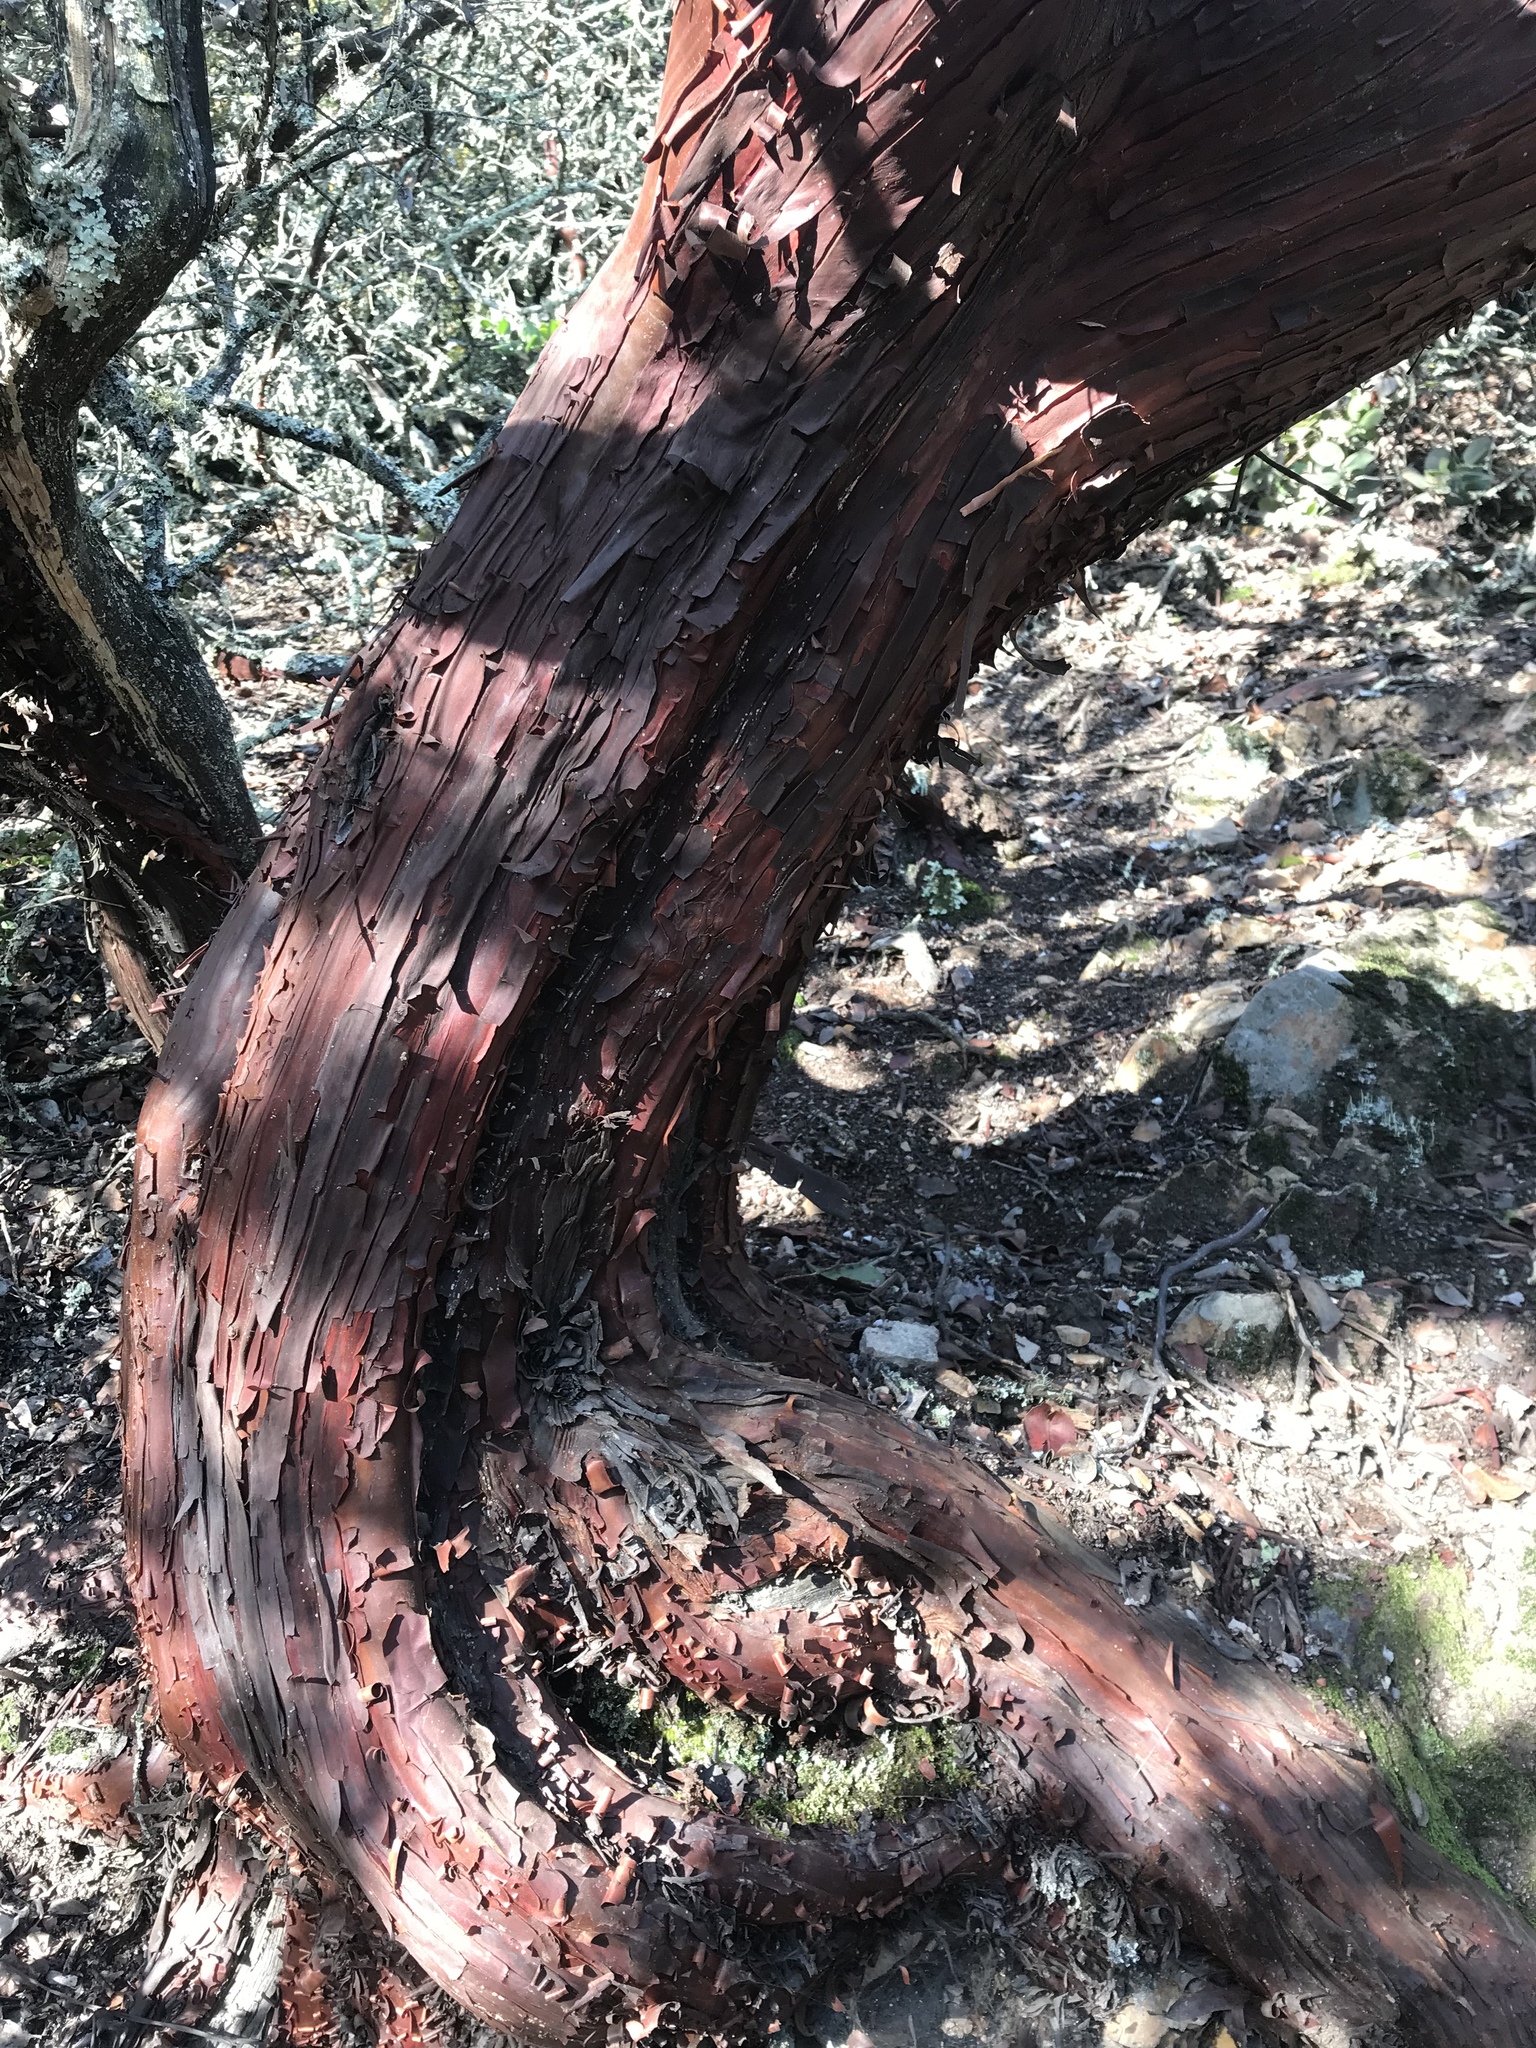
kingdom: Plantae
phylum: Tracheophyta
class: Magnoliopsida
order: Ericales
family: Ericaceae
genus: Arctostaphylos
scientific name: Arctostaphylos pallida
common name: Pallid manzanita
